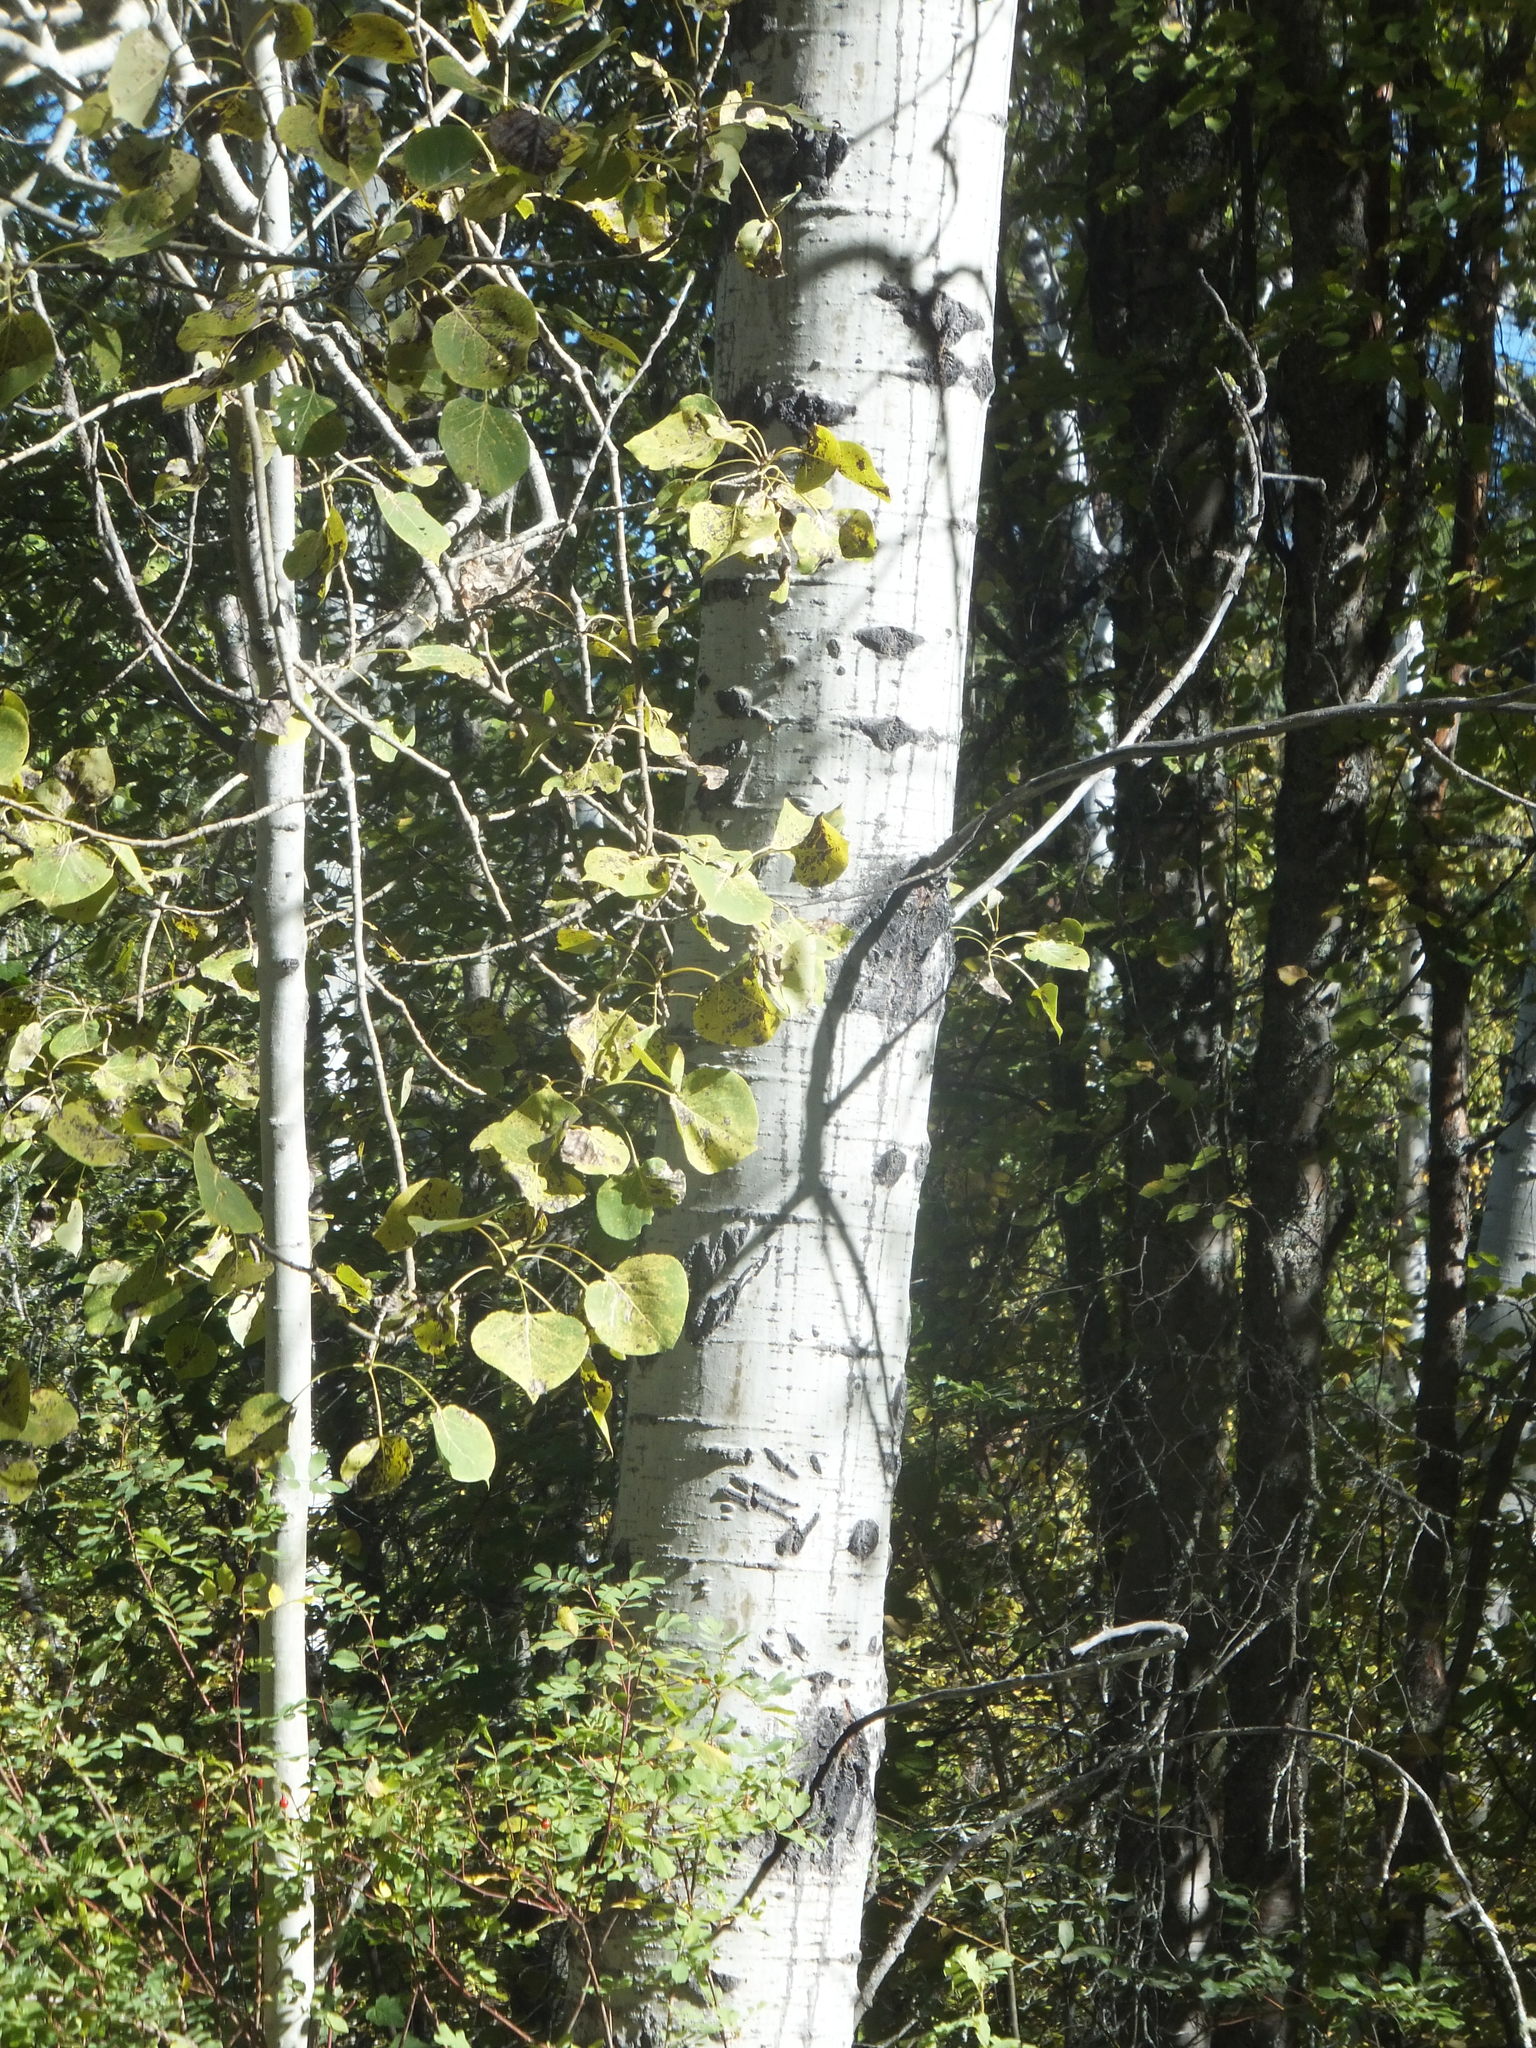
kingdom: Plantae
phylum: Tracheophyta
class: Magnoliopsida
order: Malpighiales
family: Salicaceae
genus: Populus
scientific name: Populus tremuloides
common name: Quaking aspen
